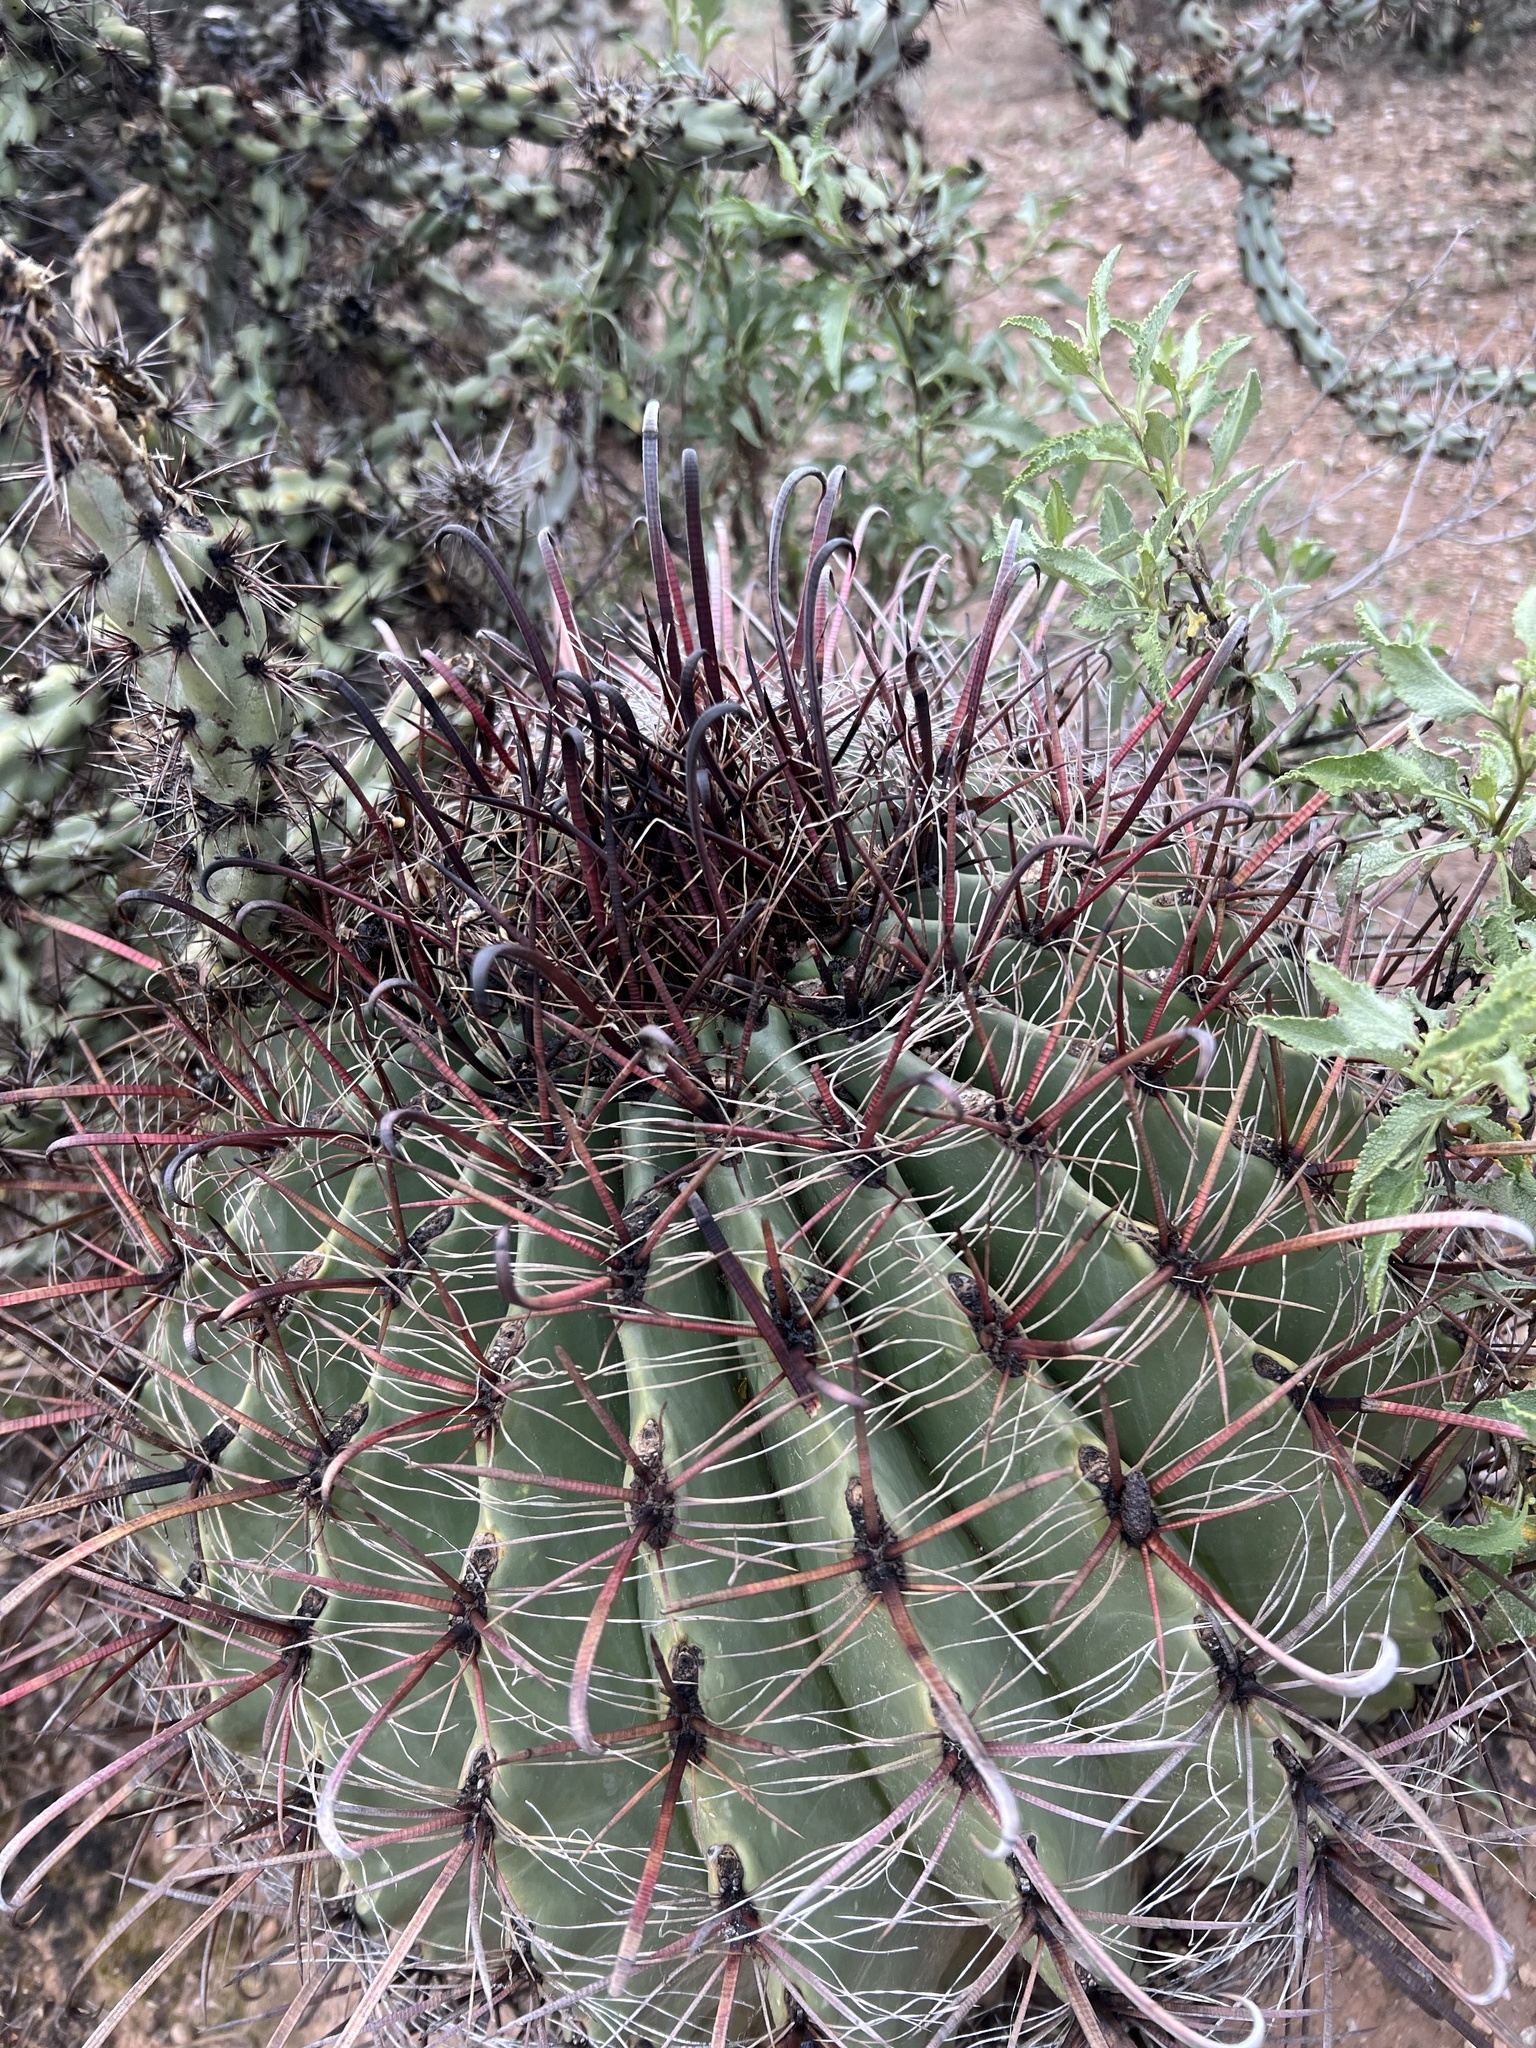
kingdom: Plantae
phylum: Tracheophyta
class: Magnoliopsida
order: Caryophyllales
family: Cactaceae
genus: Ferocactus
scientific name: Ferocactus wislizeni
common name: Candy barrel cactus
